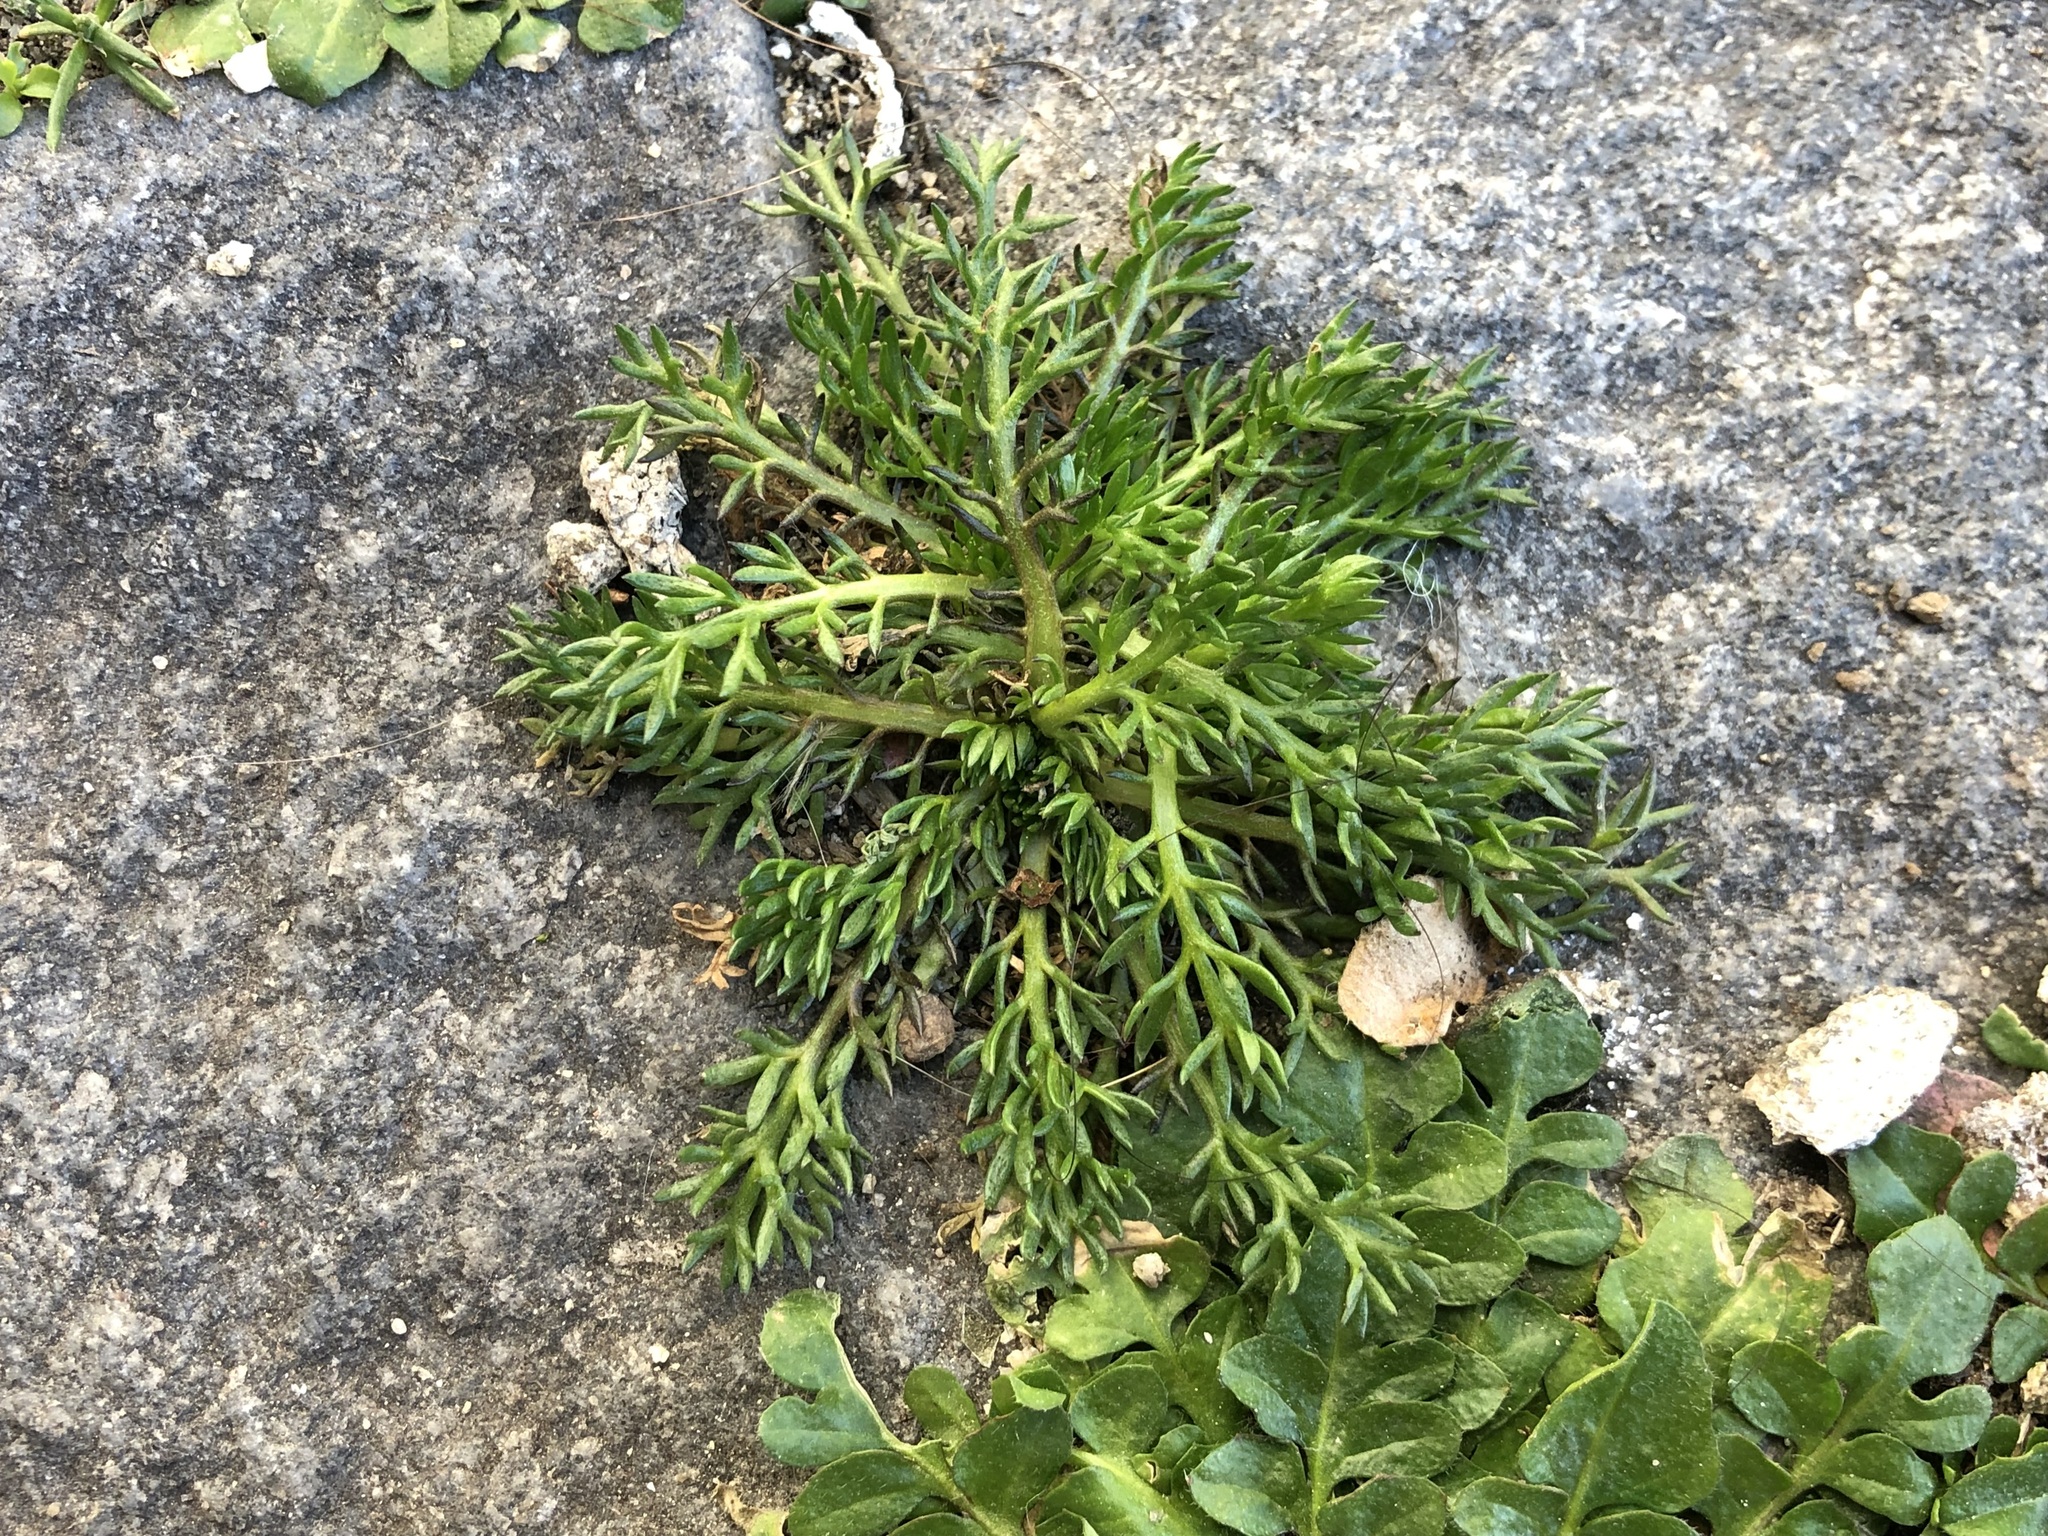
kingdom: Plantae
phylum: Tracheophyta
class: Magnoliopsida
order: Asterales
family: Asteraceae
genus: Matricaria
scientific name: Matricaria discoidea
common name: Disc mayweed
